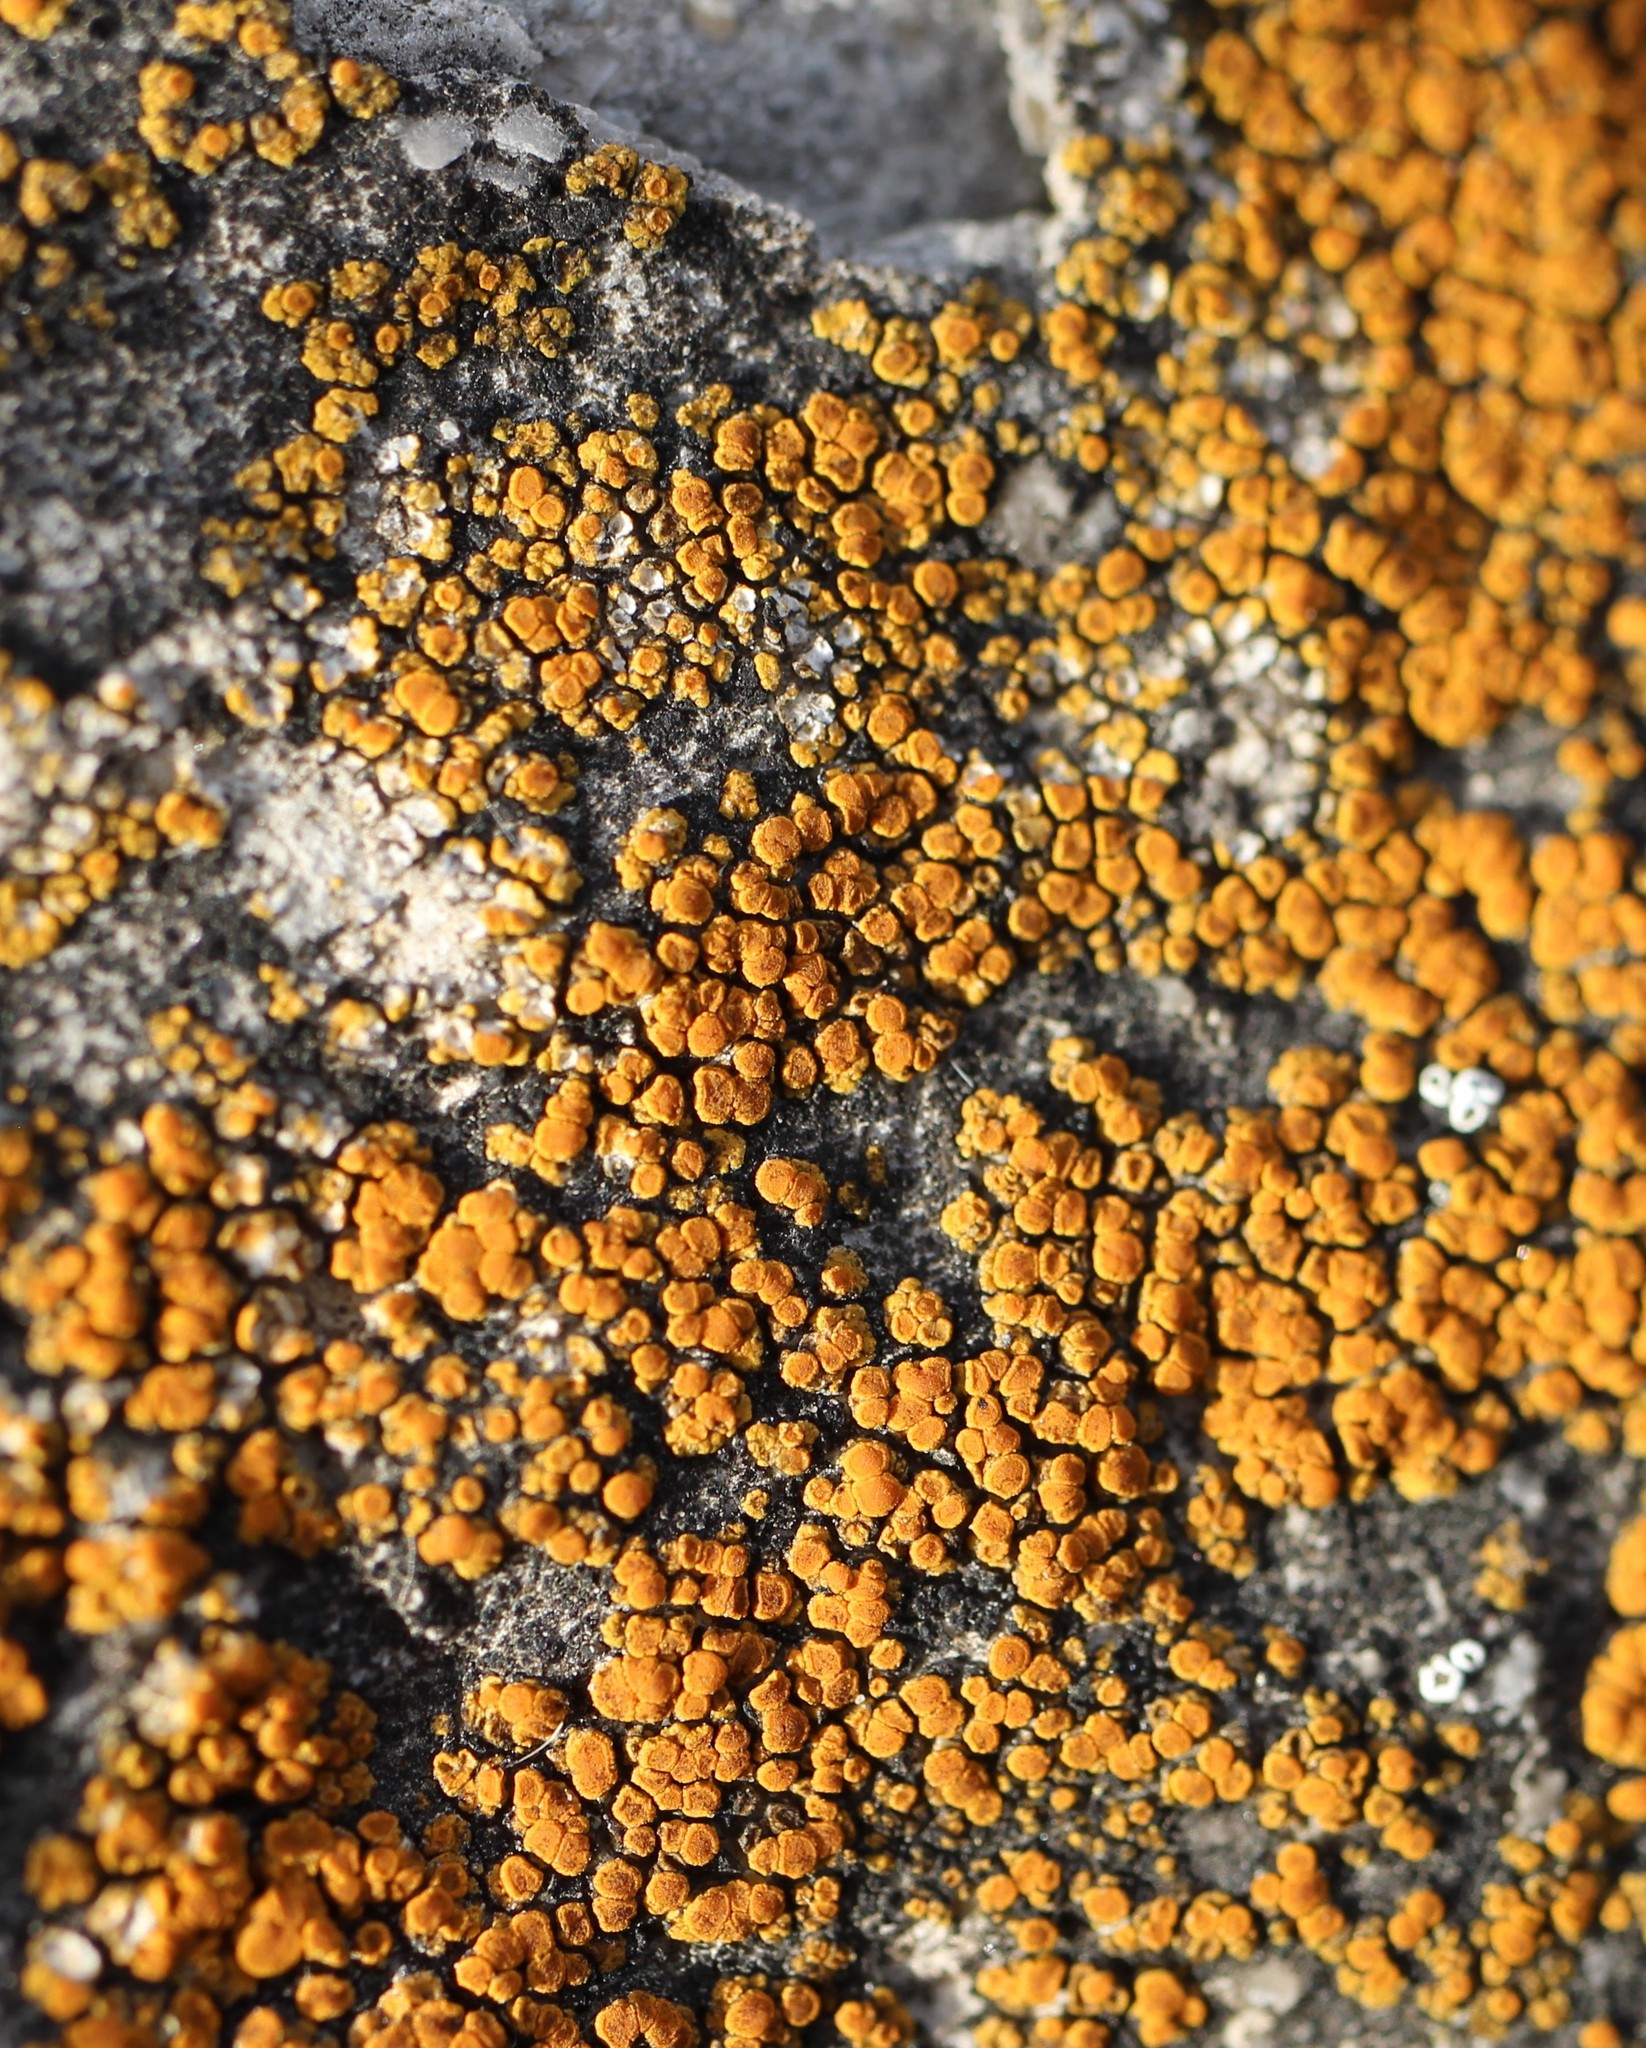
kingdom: Fungi
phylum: Ascomycota
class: Lecanoromycetes
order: Teloschistales
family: Teloschistaceae
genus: Xanthocarpia
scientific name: Xanthocarpia feracissima
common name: Sidewalk firedot
